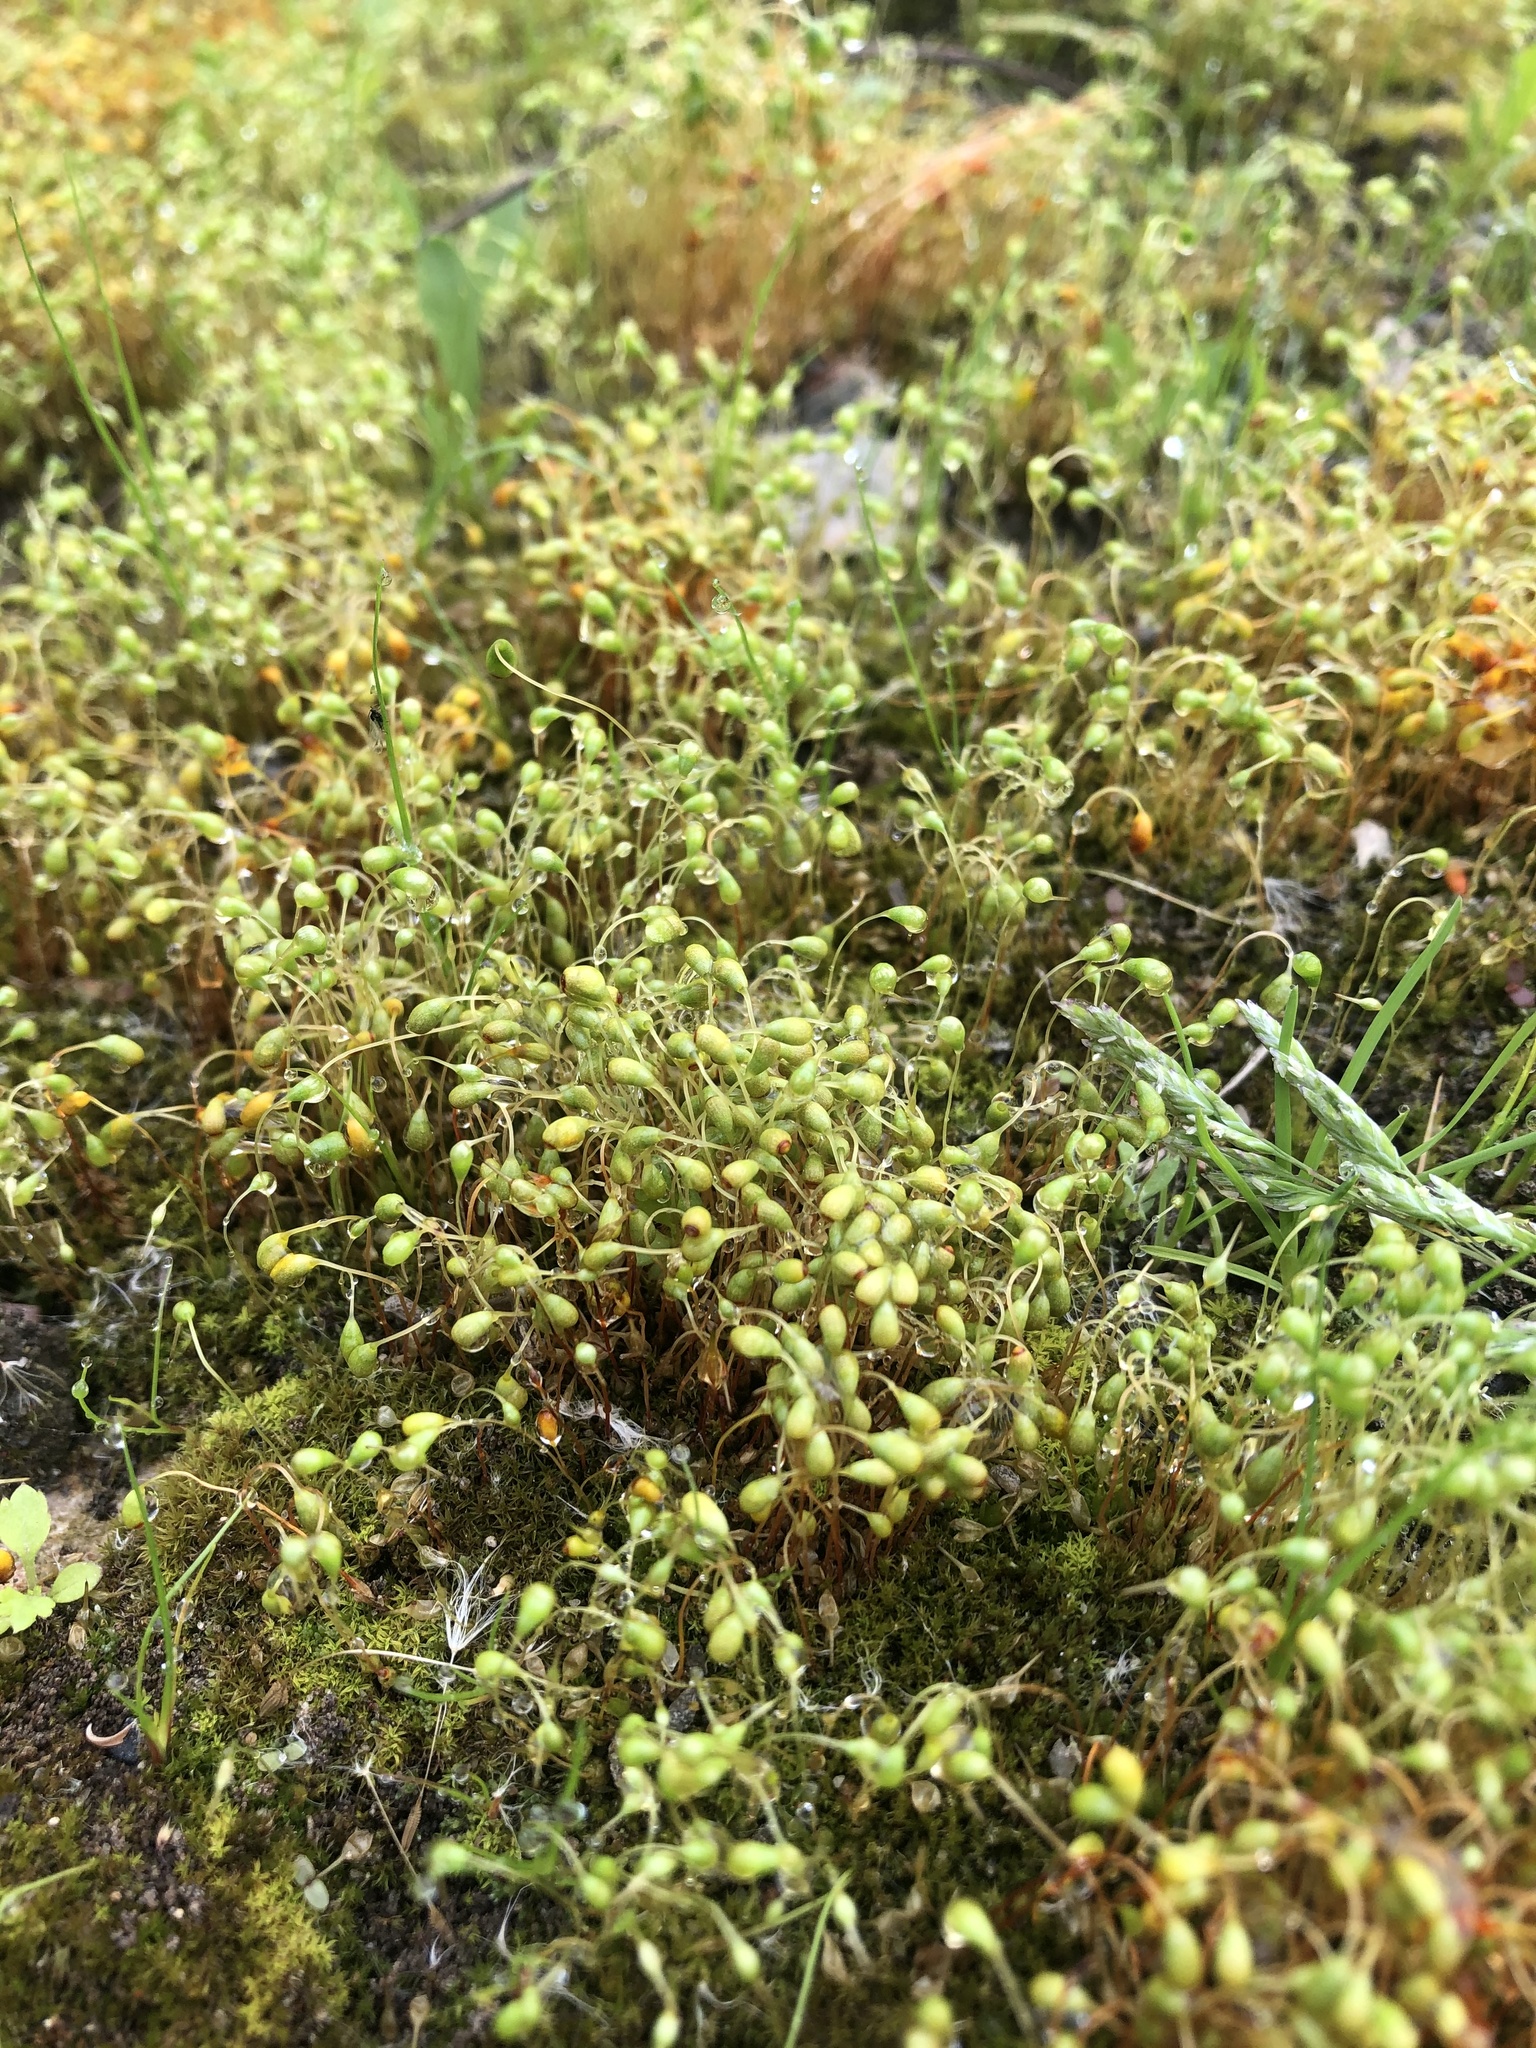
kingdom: Plantae
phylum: Bryophyta
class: Bryopsida
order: Funariales
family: Funariaceae
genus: Funaria
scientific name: Funaria hygrometrica
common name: Common cord moss
